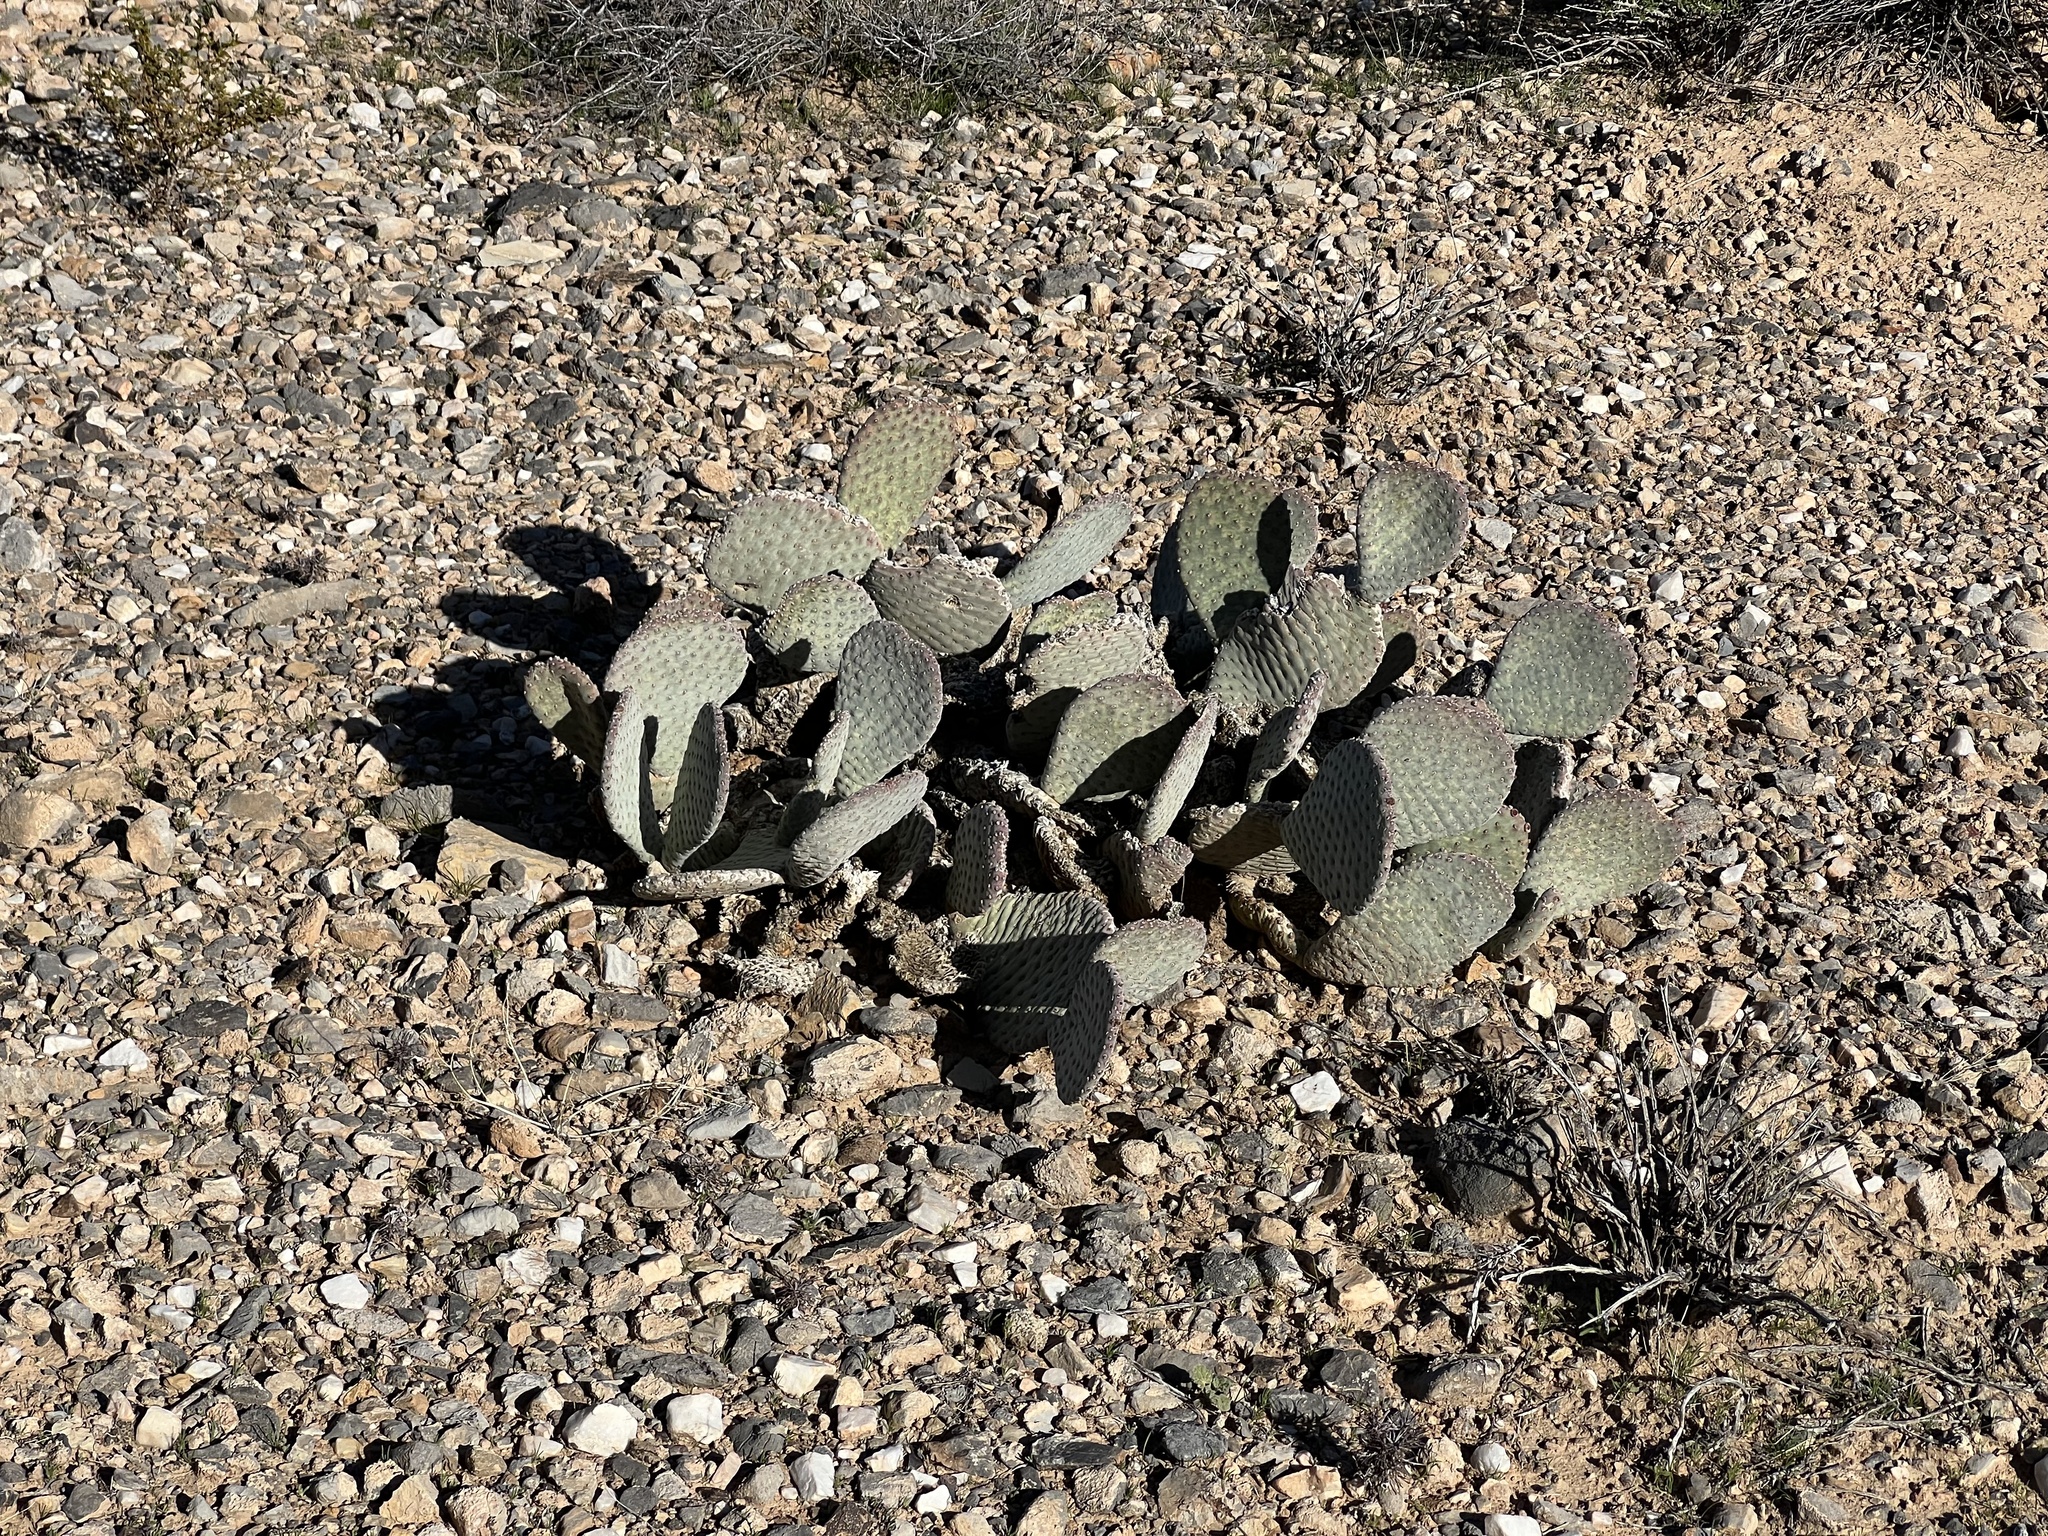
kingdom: Plantae
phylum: Tracheophyta
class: Magnoliopsida
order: Caryophyllales
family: Cactaceae
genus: Opuntia
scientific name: Opuntia basilaris
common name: Beavertail prickly-pear
